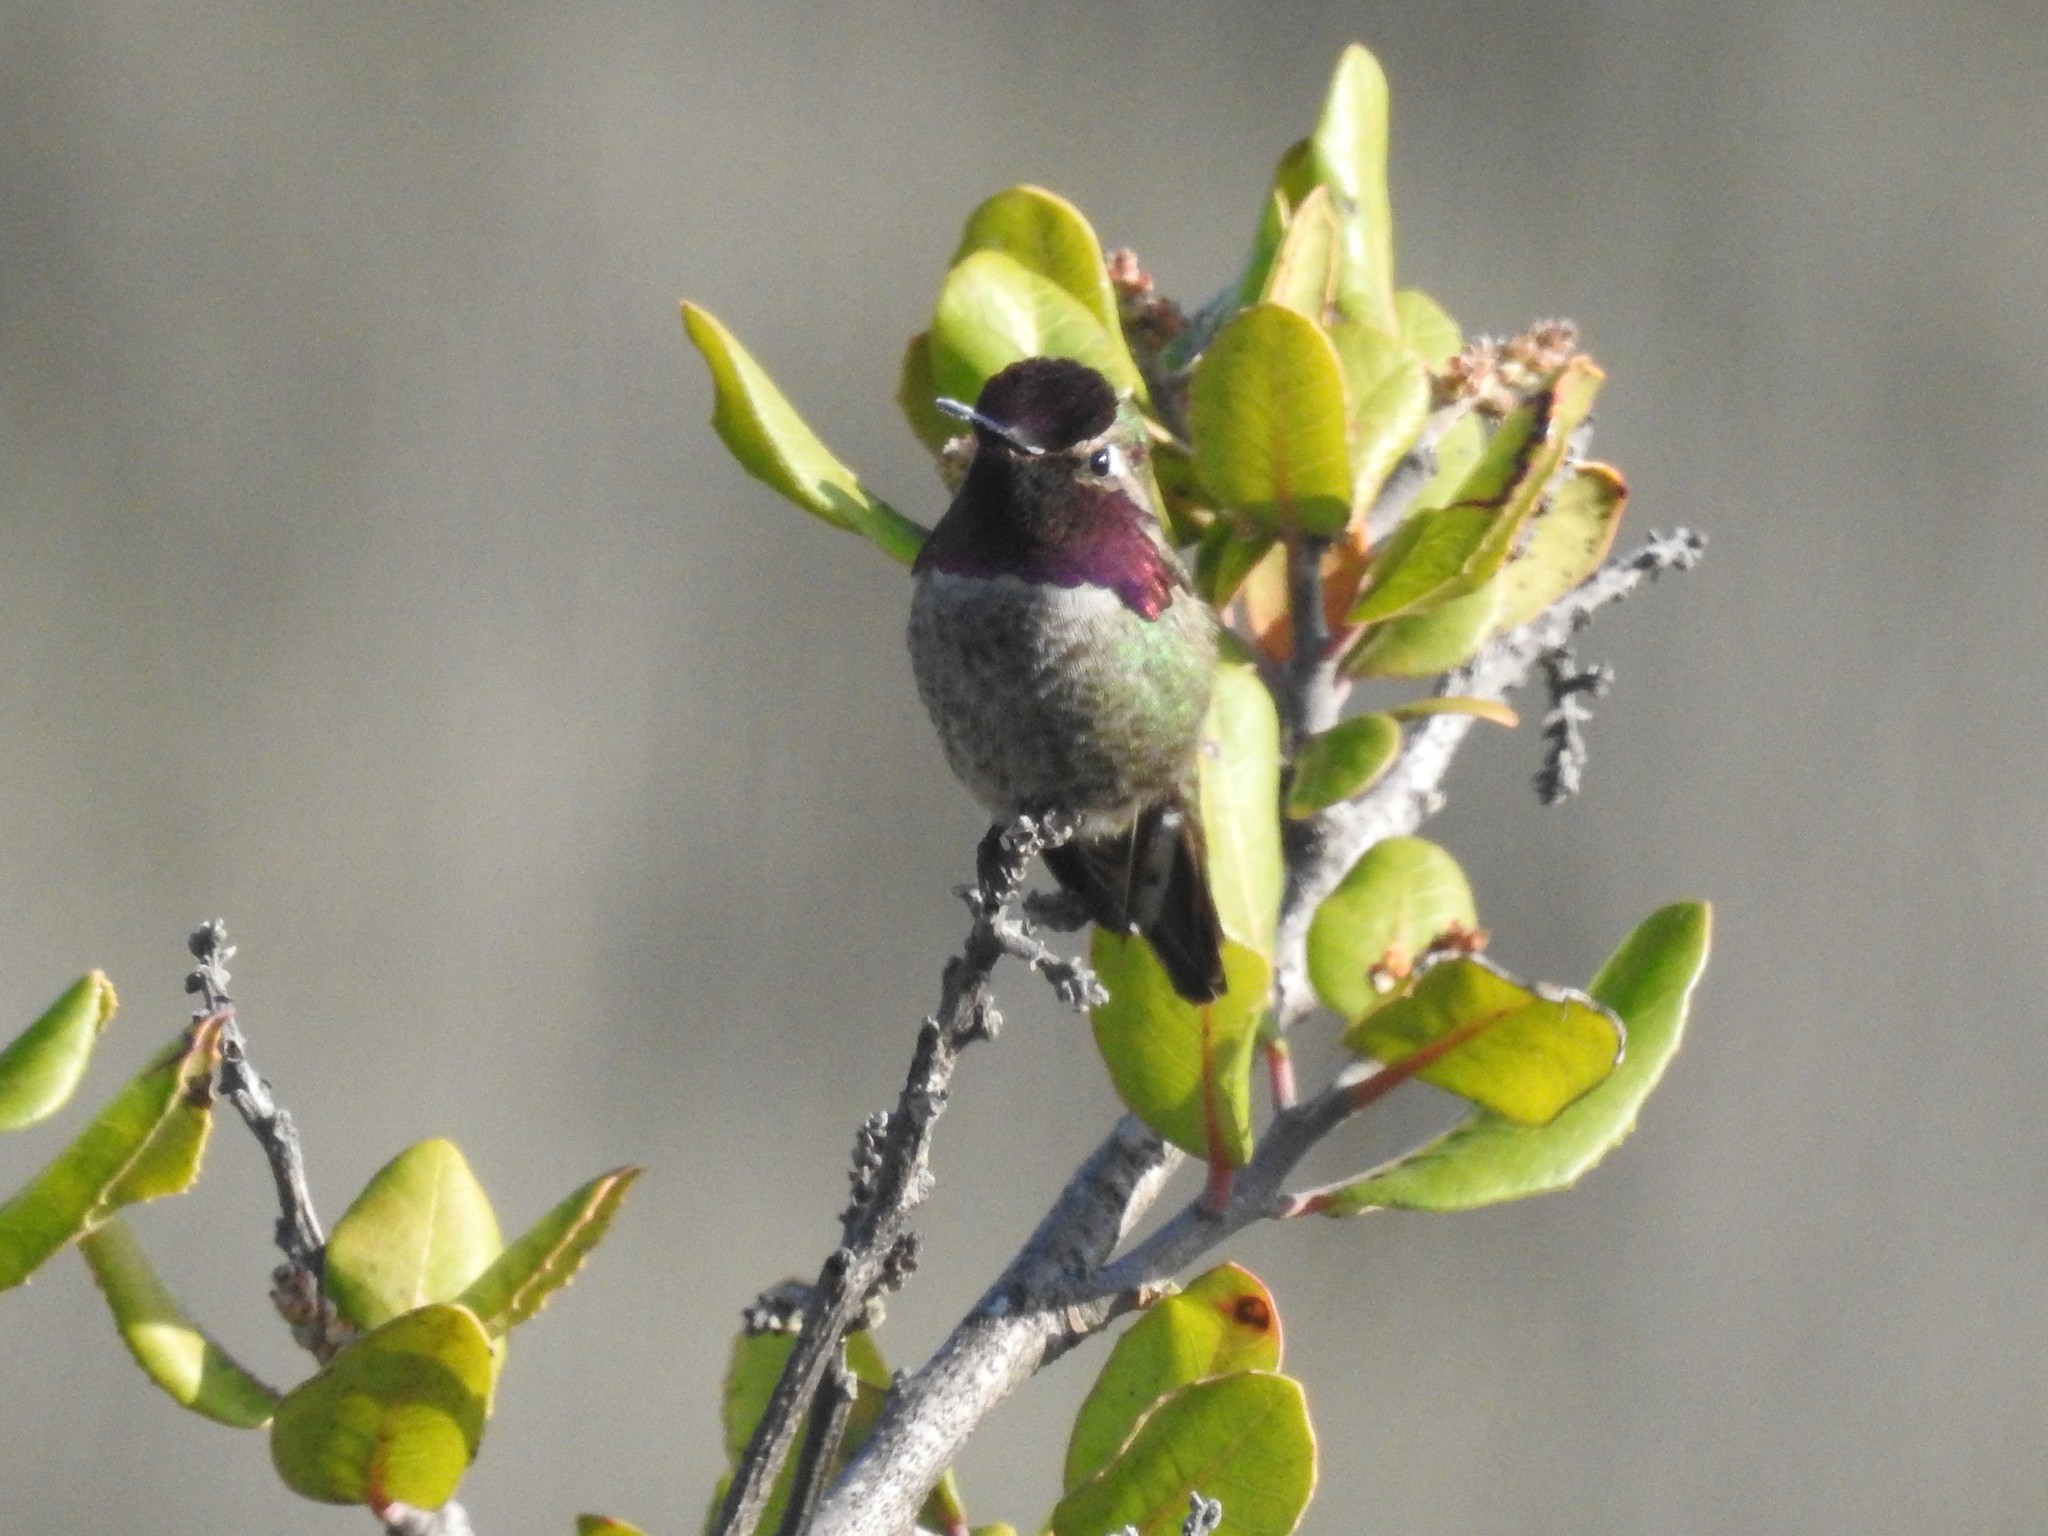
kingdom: Animalia
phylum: Chordata
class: Aves
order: Apodiformes
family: Trochilidae
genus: Calypte
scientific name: Calypte anna
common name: Anna's hummingbird
